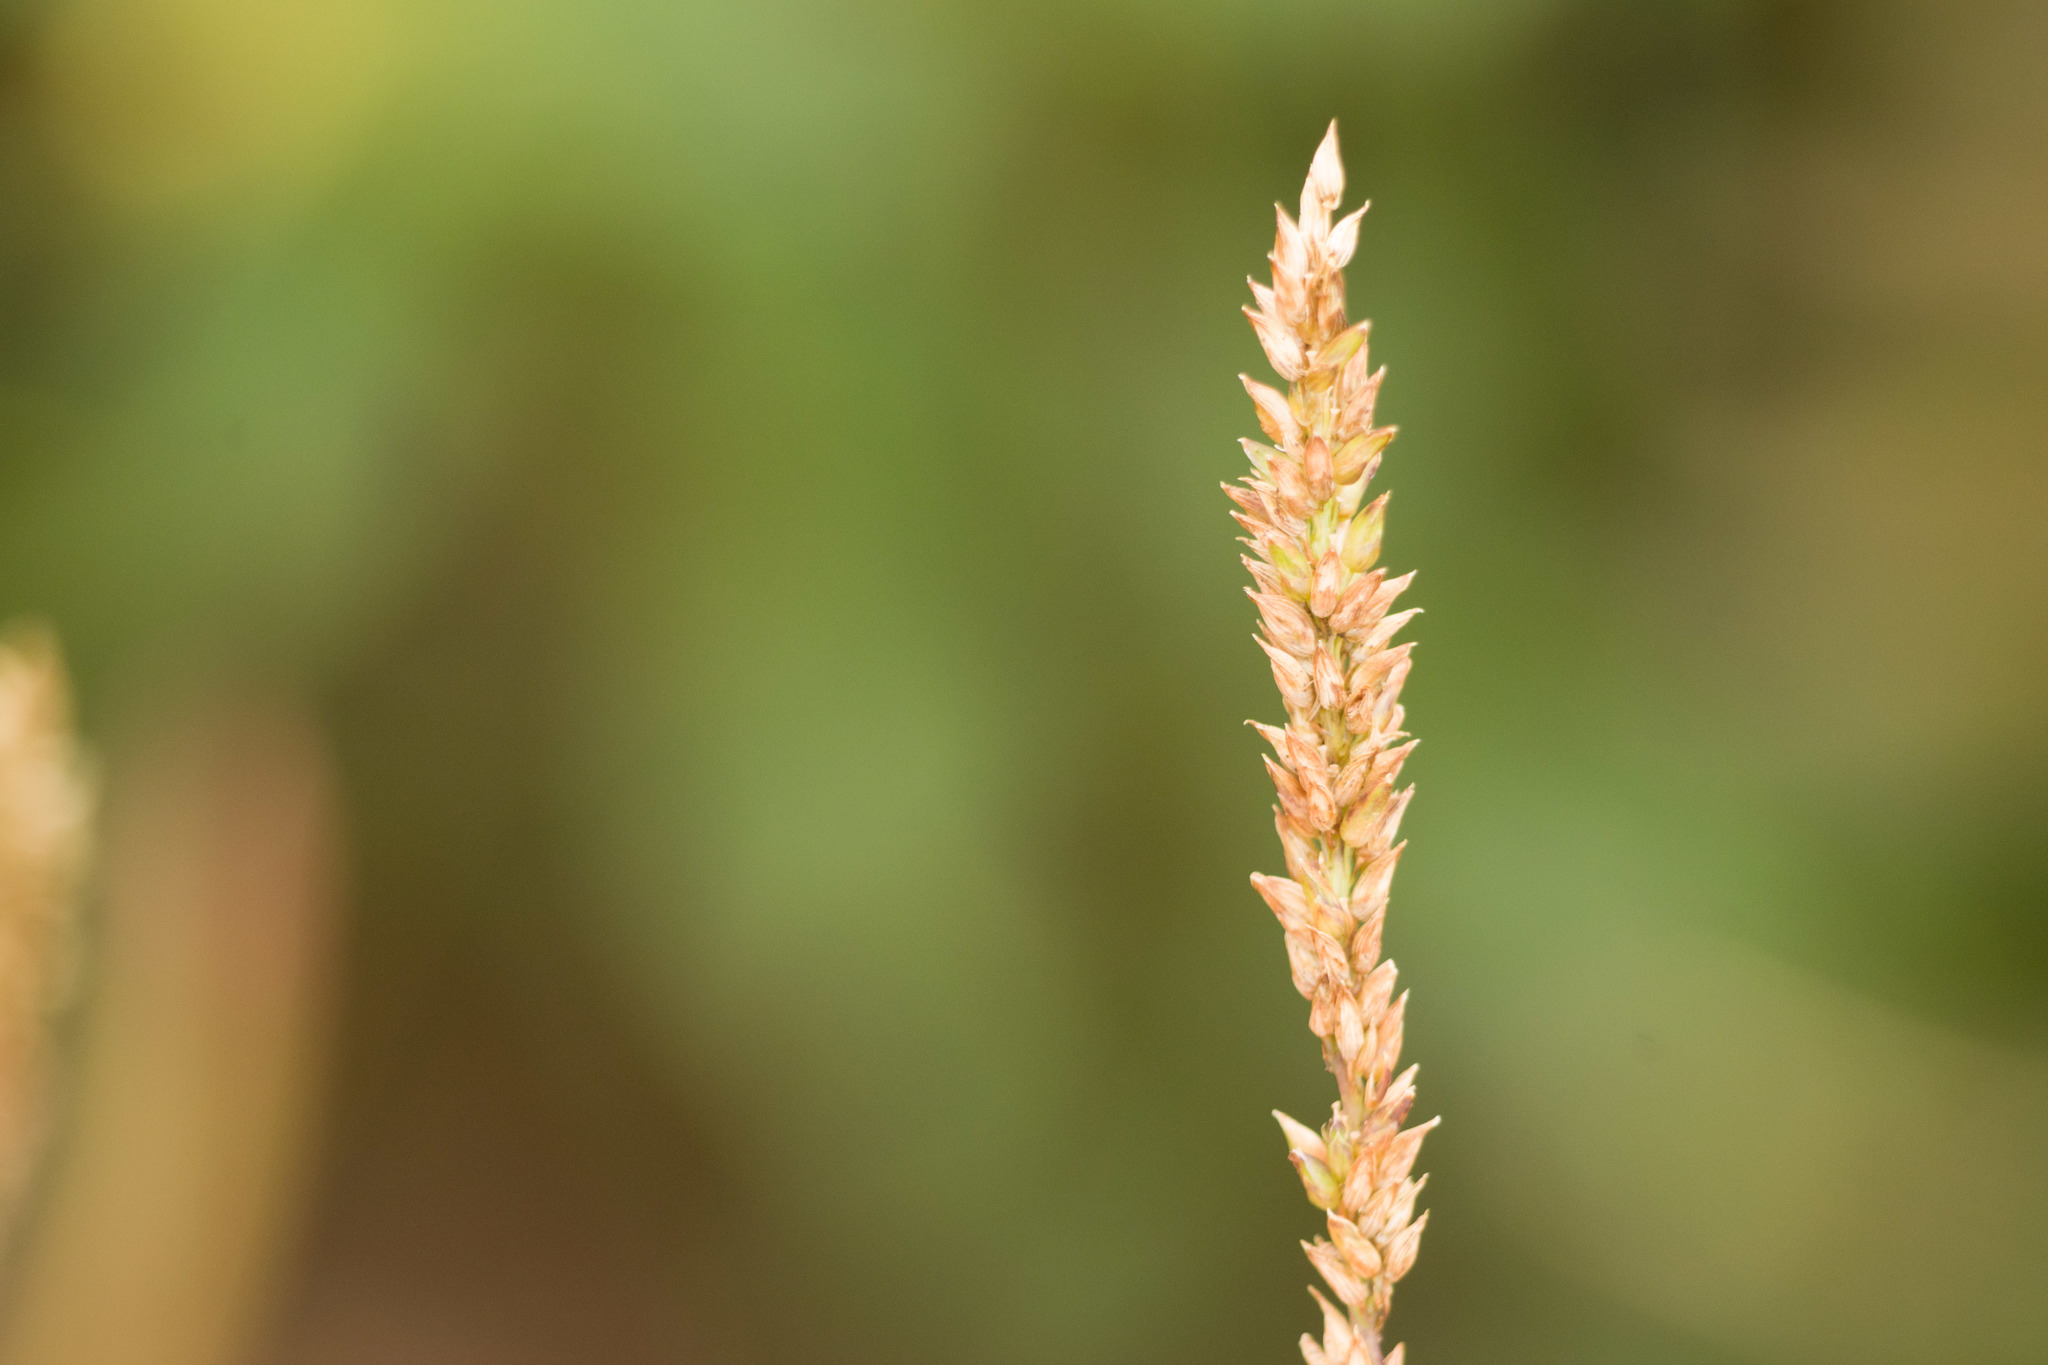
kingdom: Plantae
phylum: Tracheophyta
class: Liliopsida
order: Poales
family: Poaceae
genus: Sacciolepis
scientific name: Sacciolepis indica
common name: Glenwoodgrass
